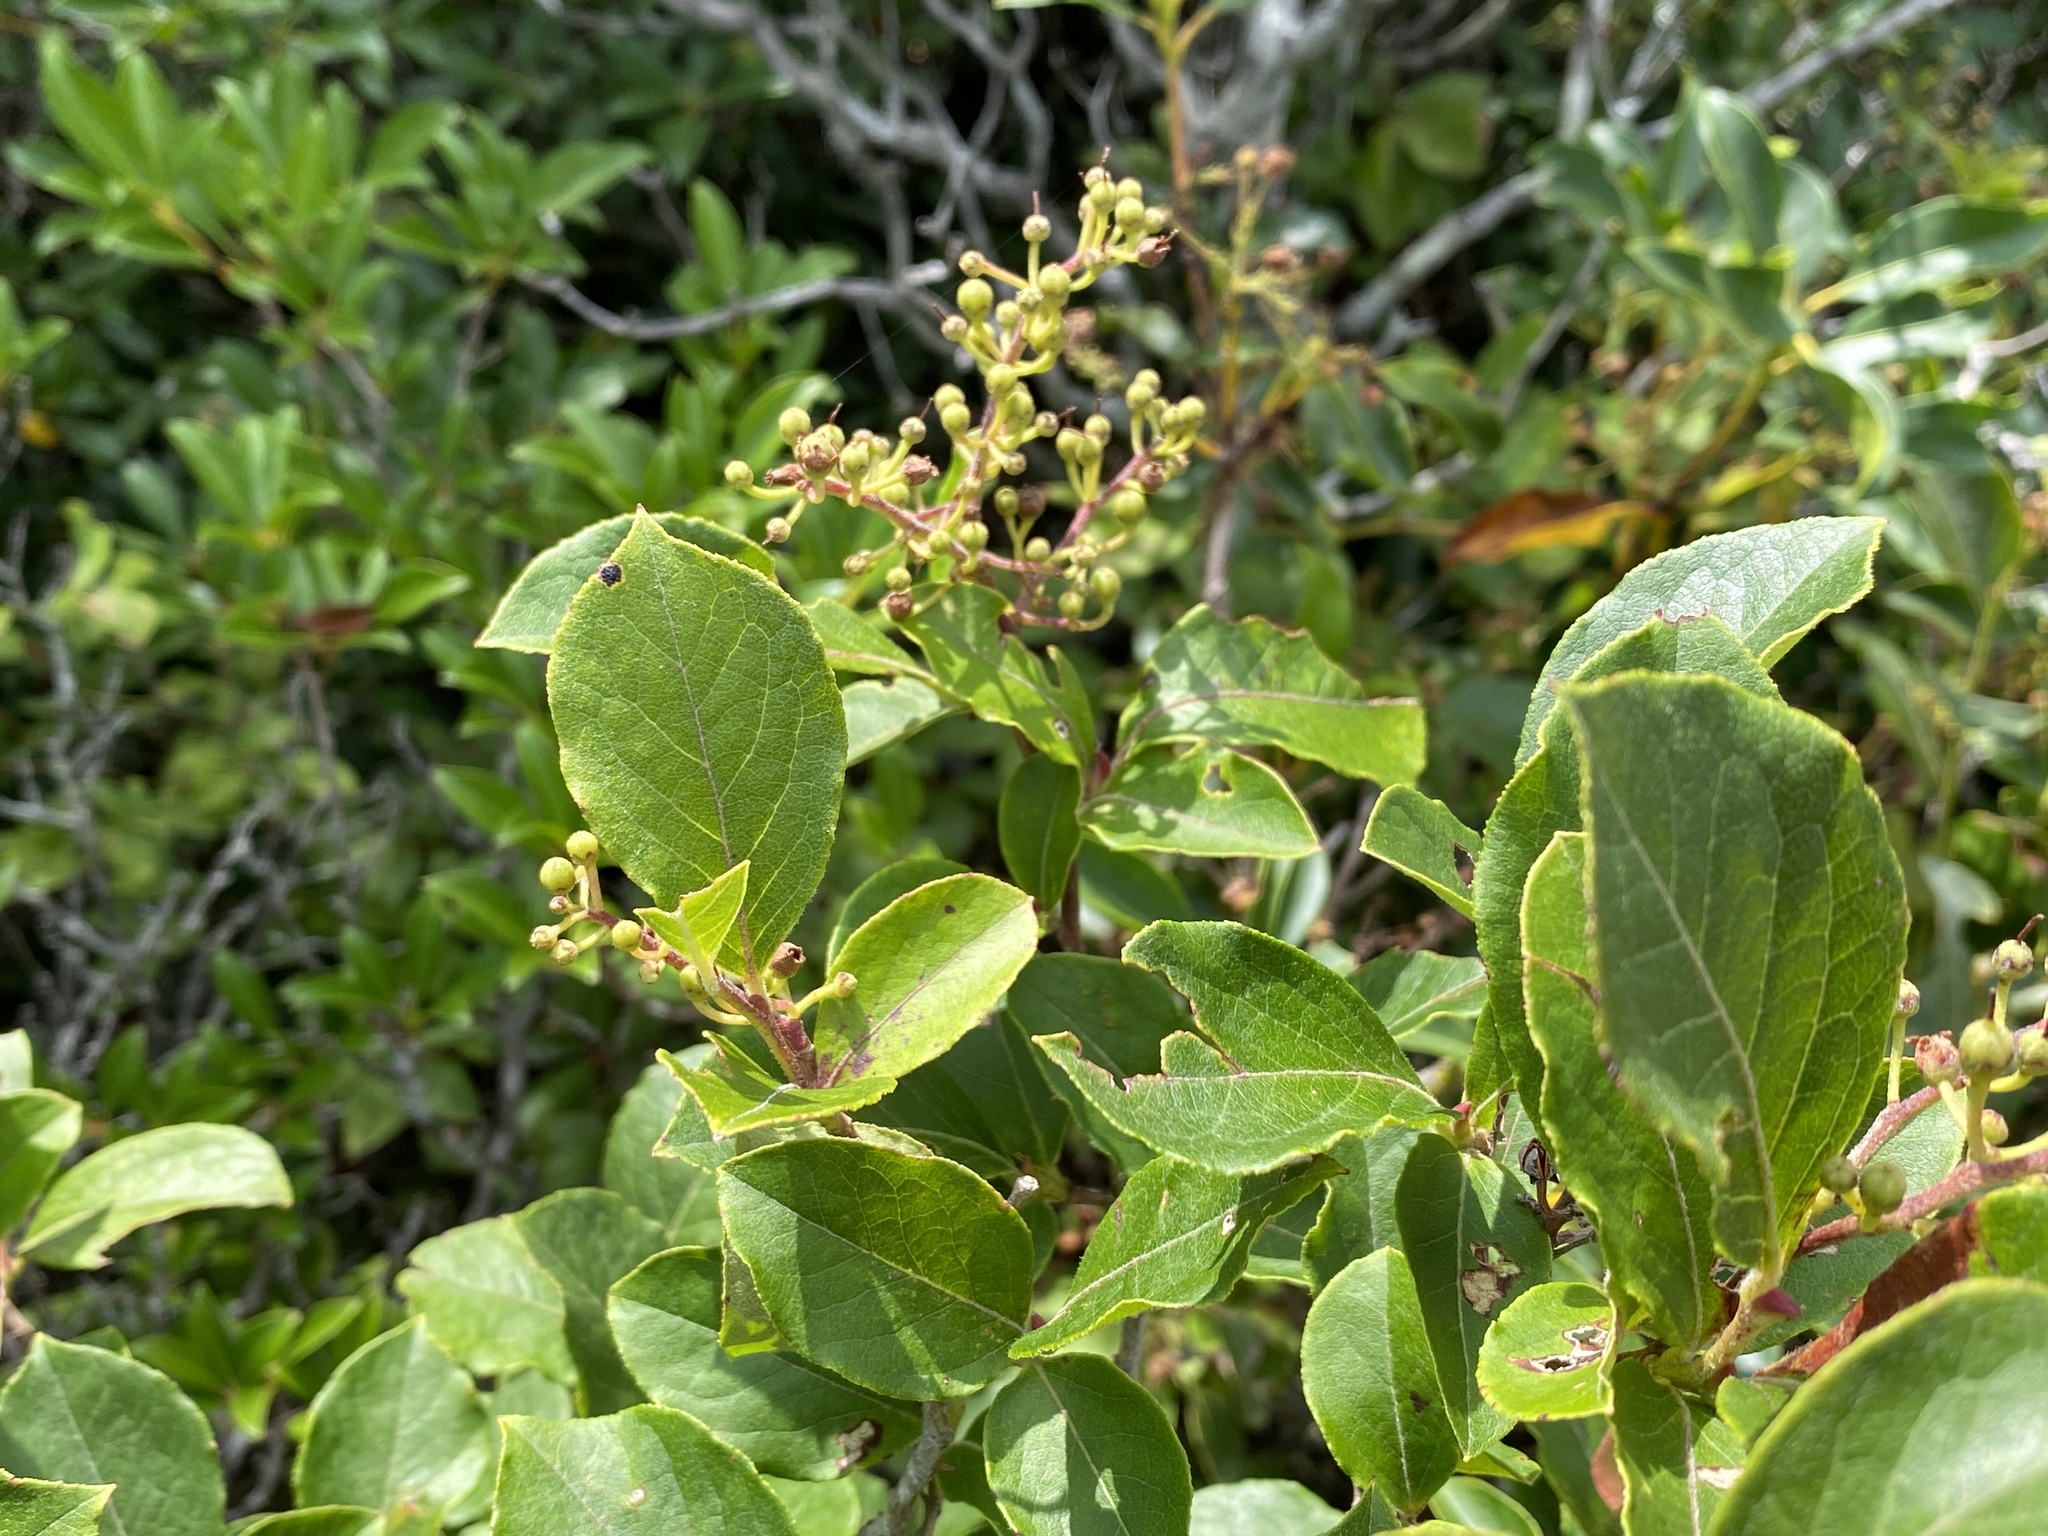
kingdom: Plantae
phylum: Tracheophyta
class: Magnoliopsida
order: Ericales
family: Ericaceae
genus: Lyonia
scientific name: Lyonia ligustrina
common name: Maleberry
